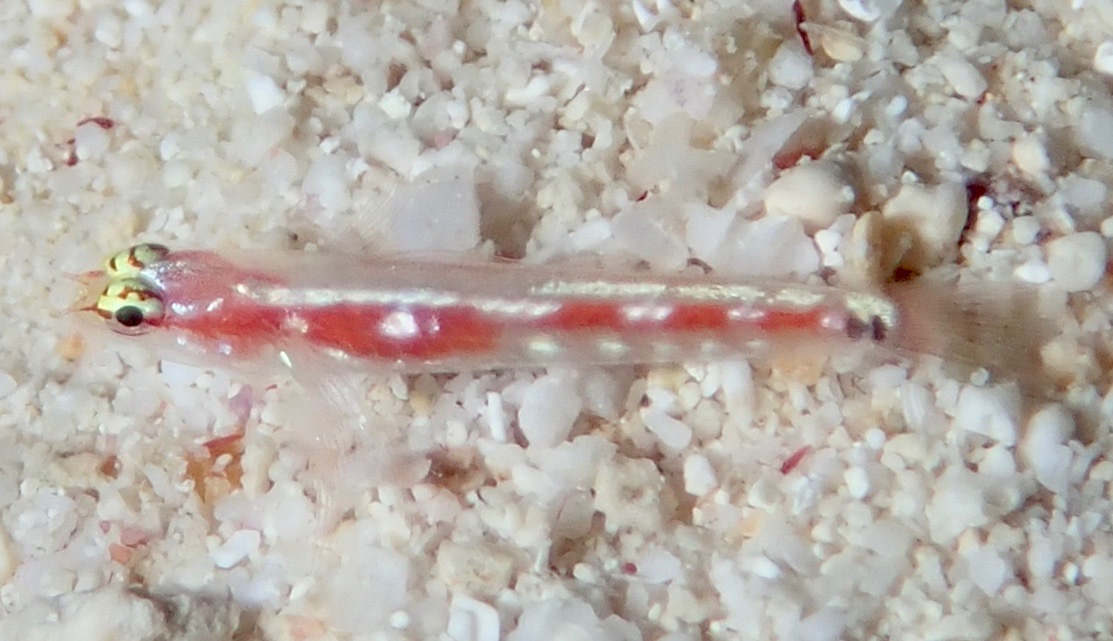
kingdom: Animalia
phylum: Chordata
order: Perciformes
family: Gobiidae
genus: Eviota
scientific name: Eviota oculineata
